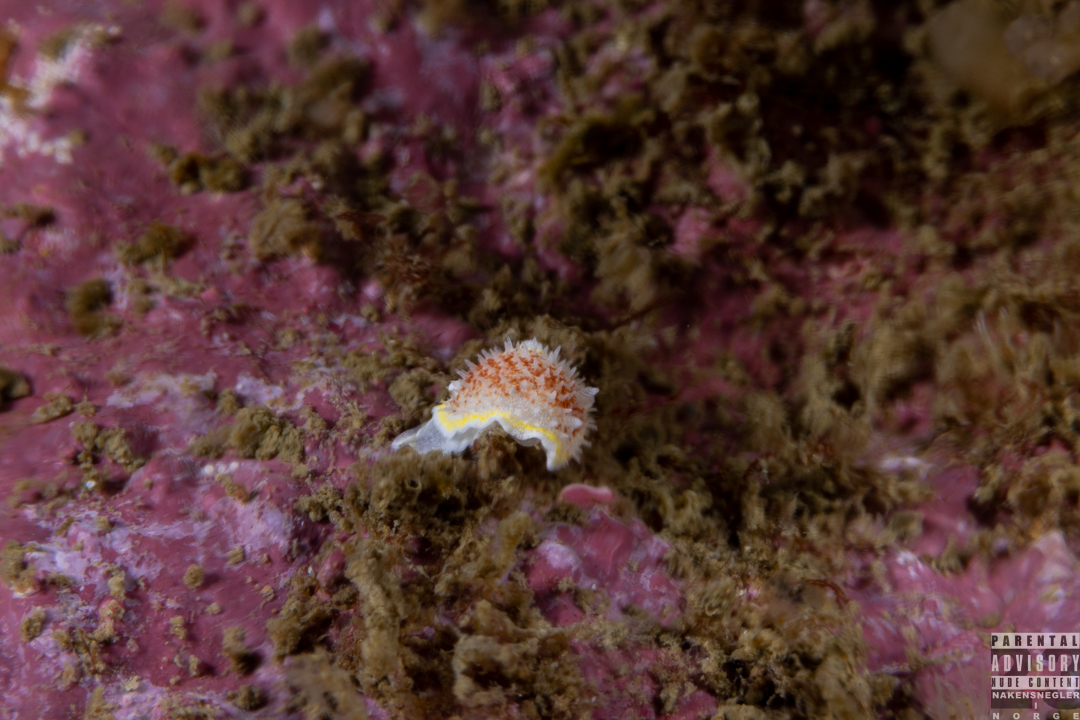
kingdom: Animalia
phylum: Mollusca
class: Gastropoda
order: Nudibranchia
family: Calycidorididae
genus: Diaphorodoris
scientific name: Diaphorodoris luteocincta
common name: Fried egg nudibranch
